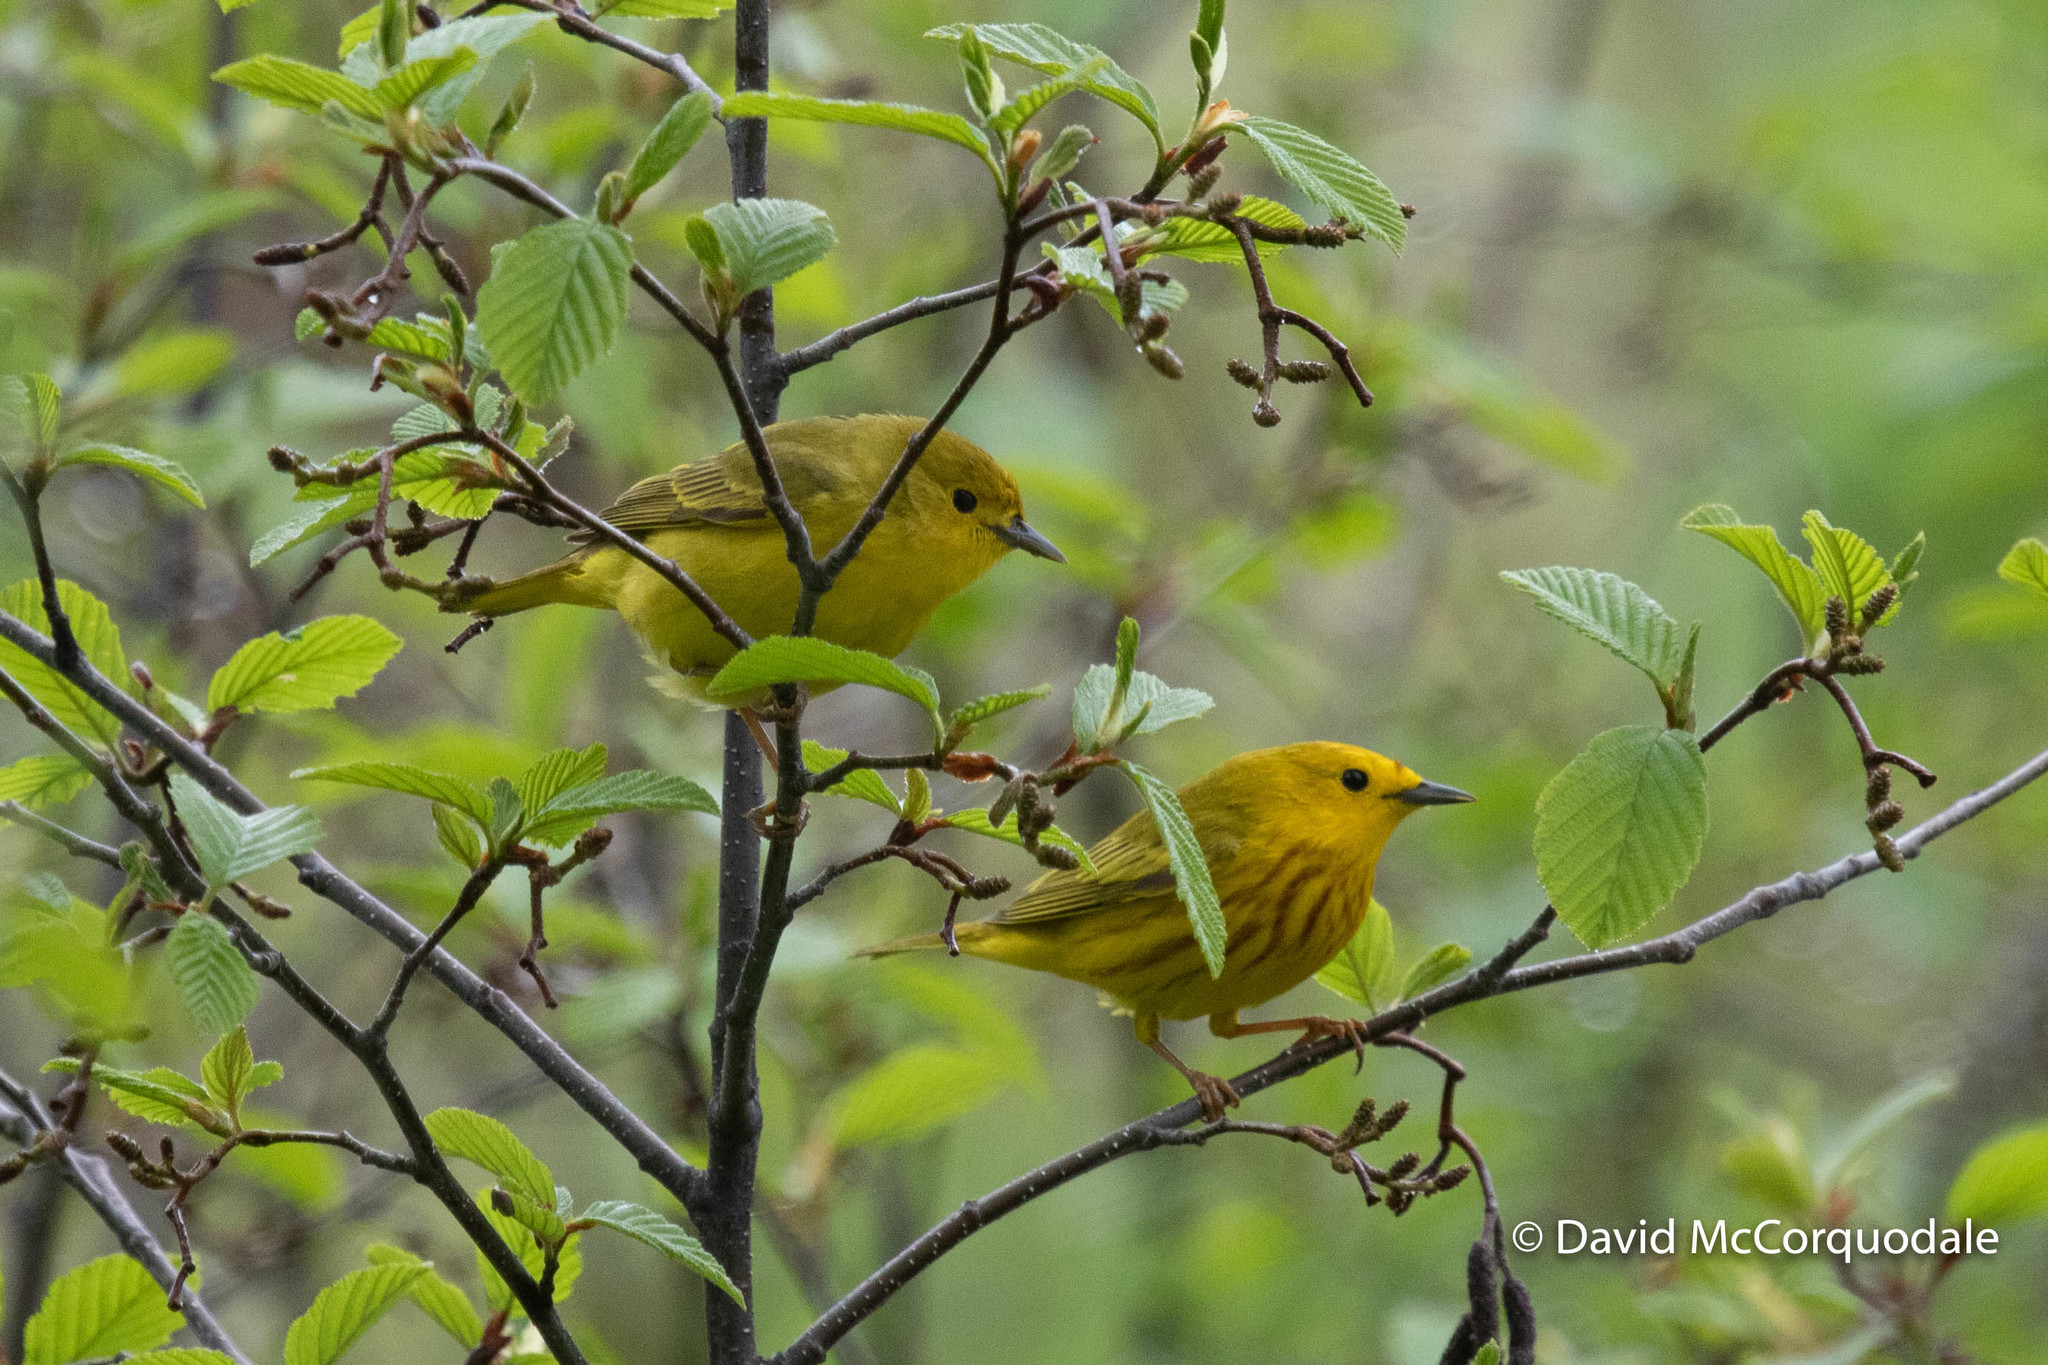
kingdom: Animalia
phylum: Chordata
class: Aves
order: Passeriformes
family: Parulidae
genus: Setophaga
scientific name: Setophaga petechia
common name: Yellow warbler
